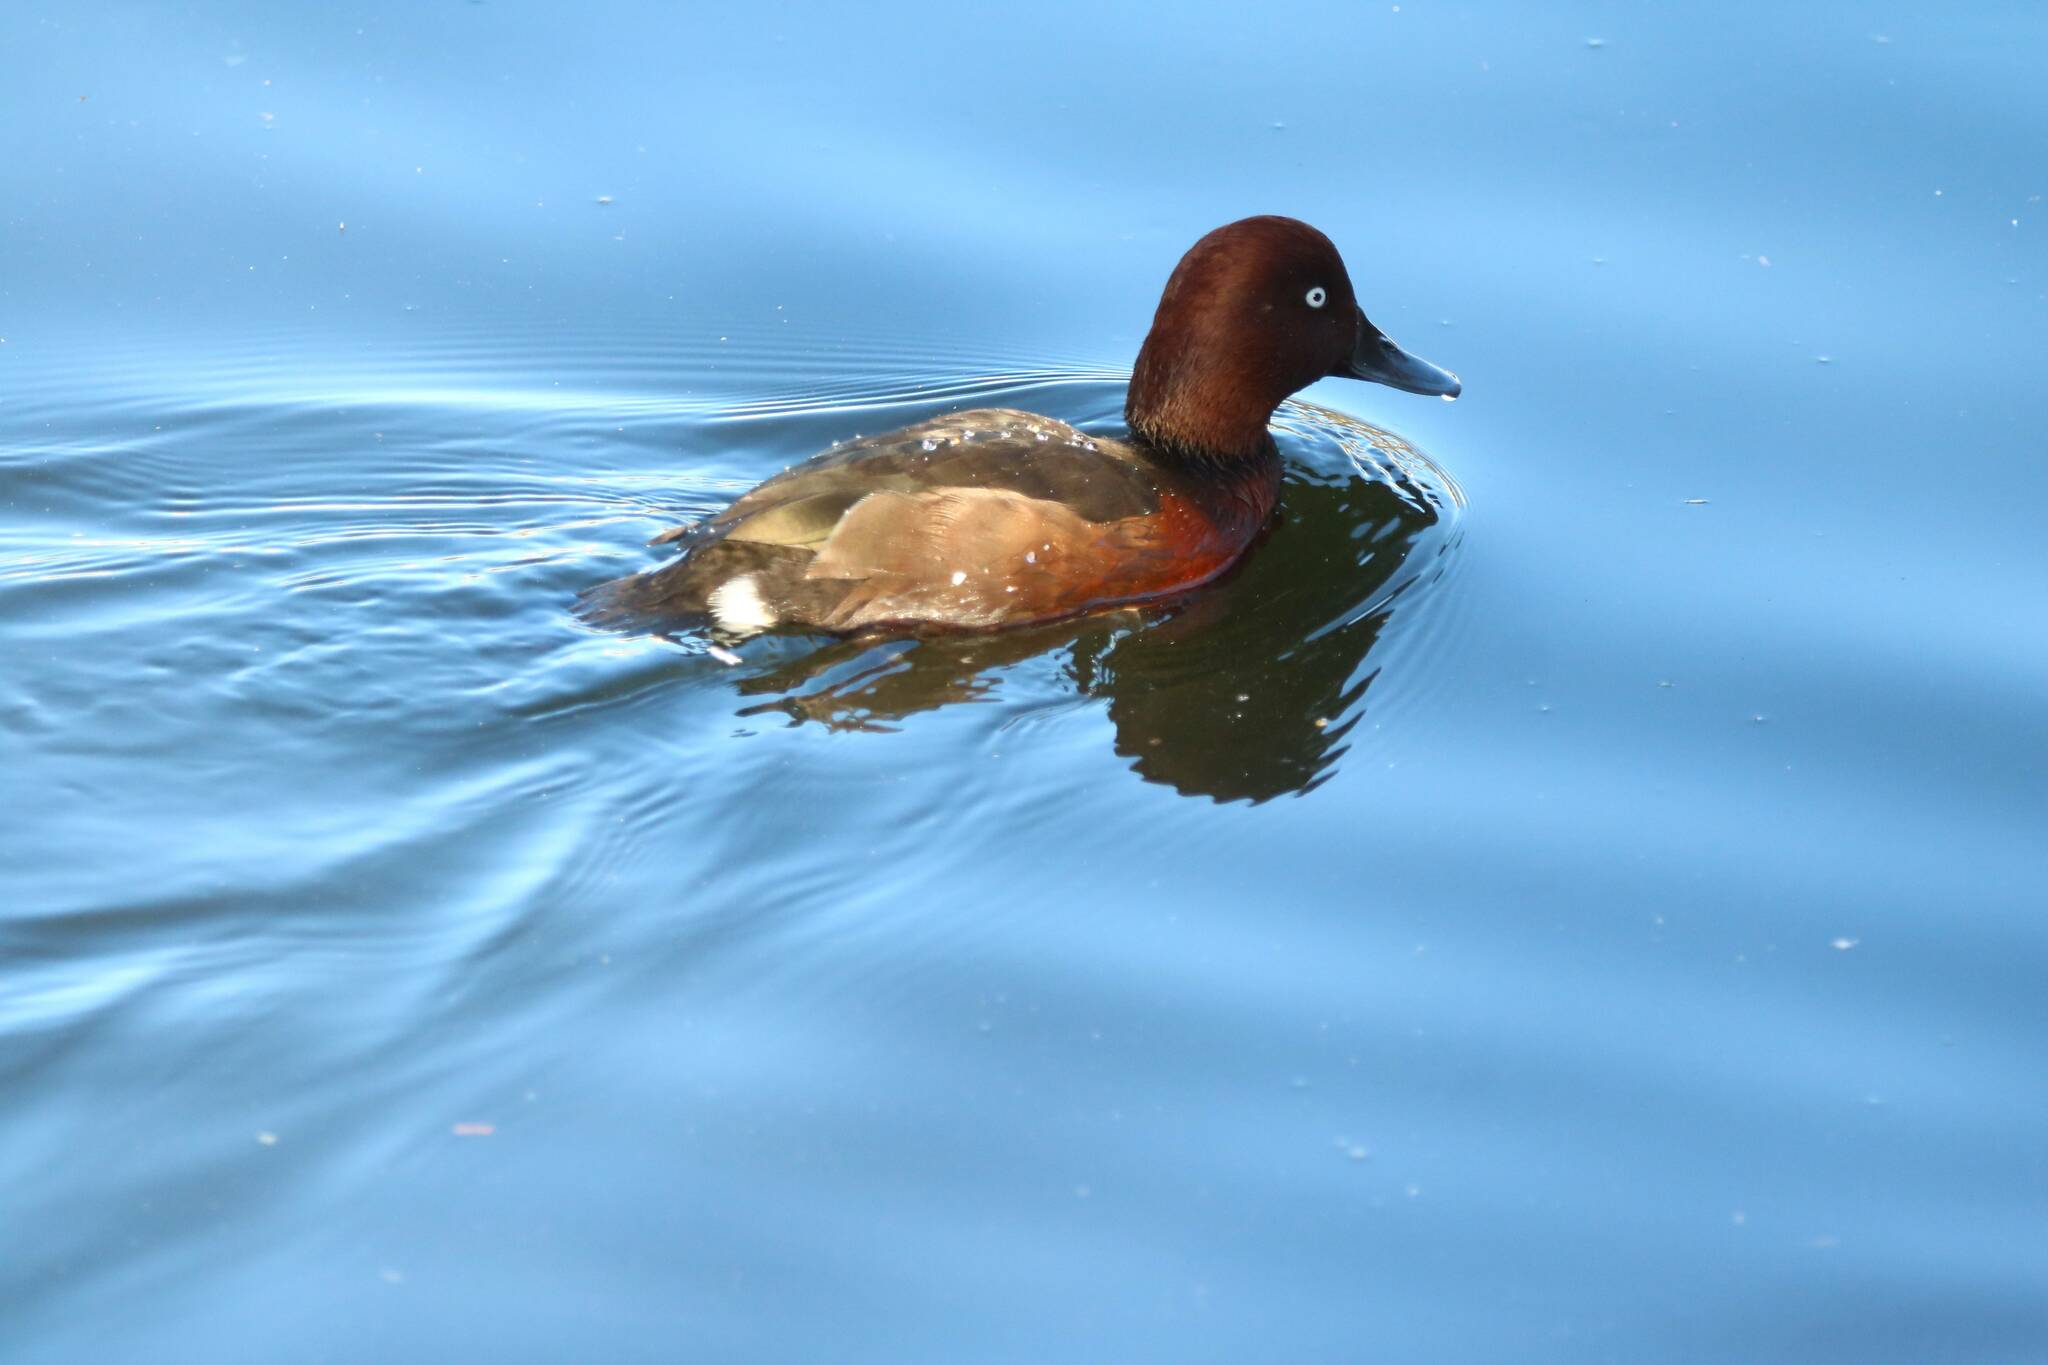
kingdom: Animalia
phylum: Chordata
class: Aves
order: Anseriformes
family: Anatidae
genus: Aythya
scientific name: Aythya nyroca
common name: Ferruginous duck
